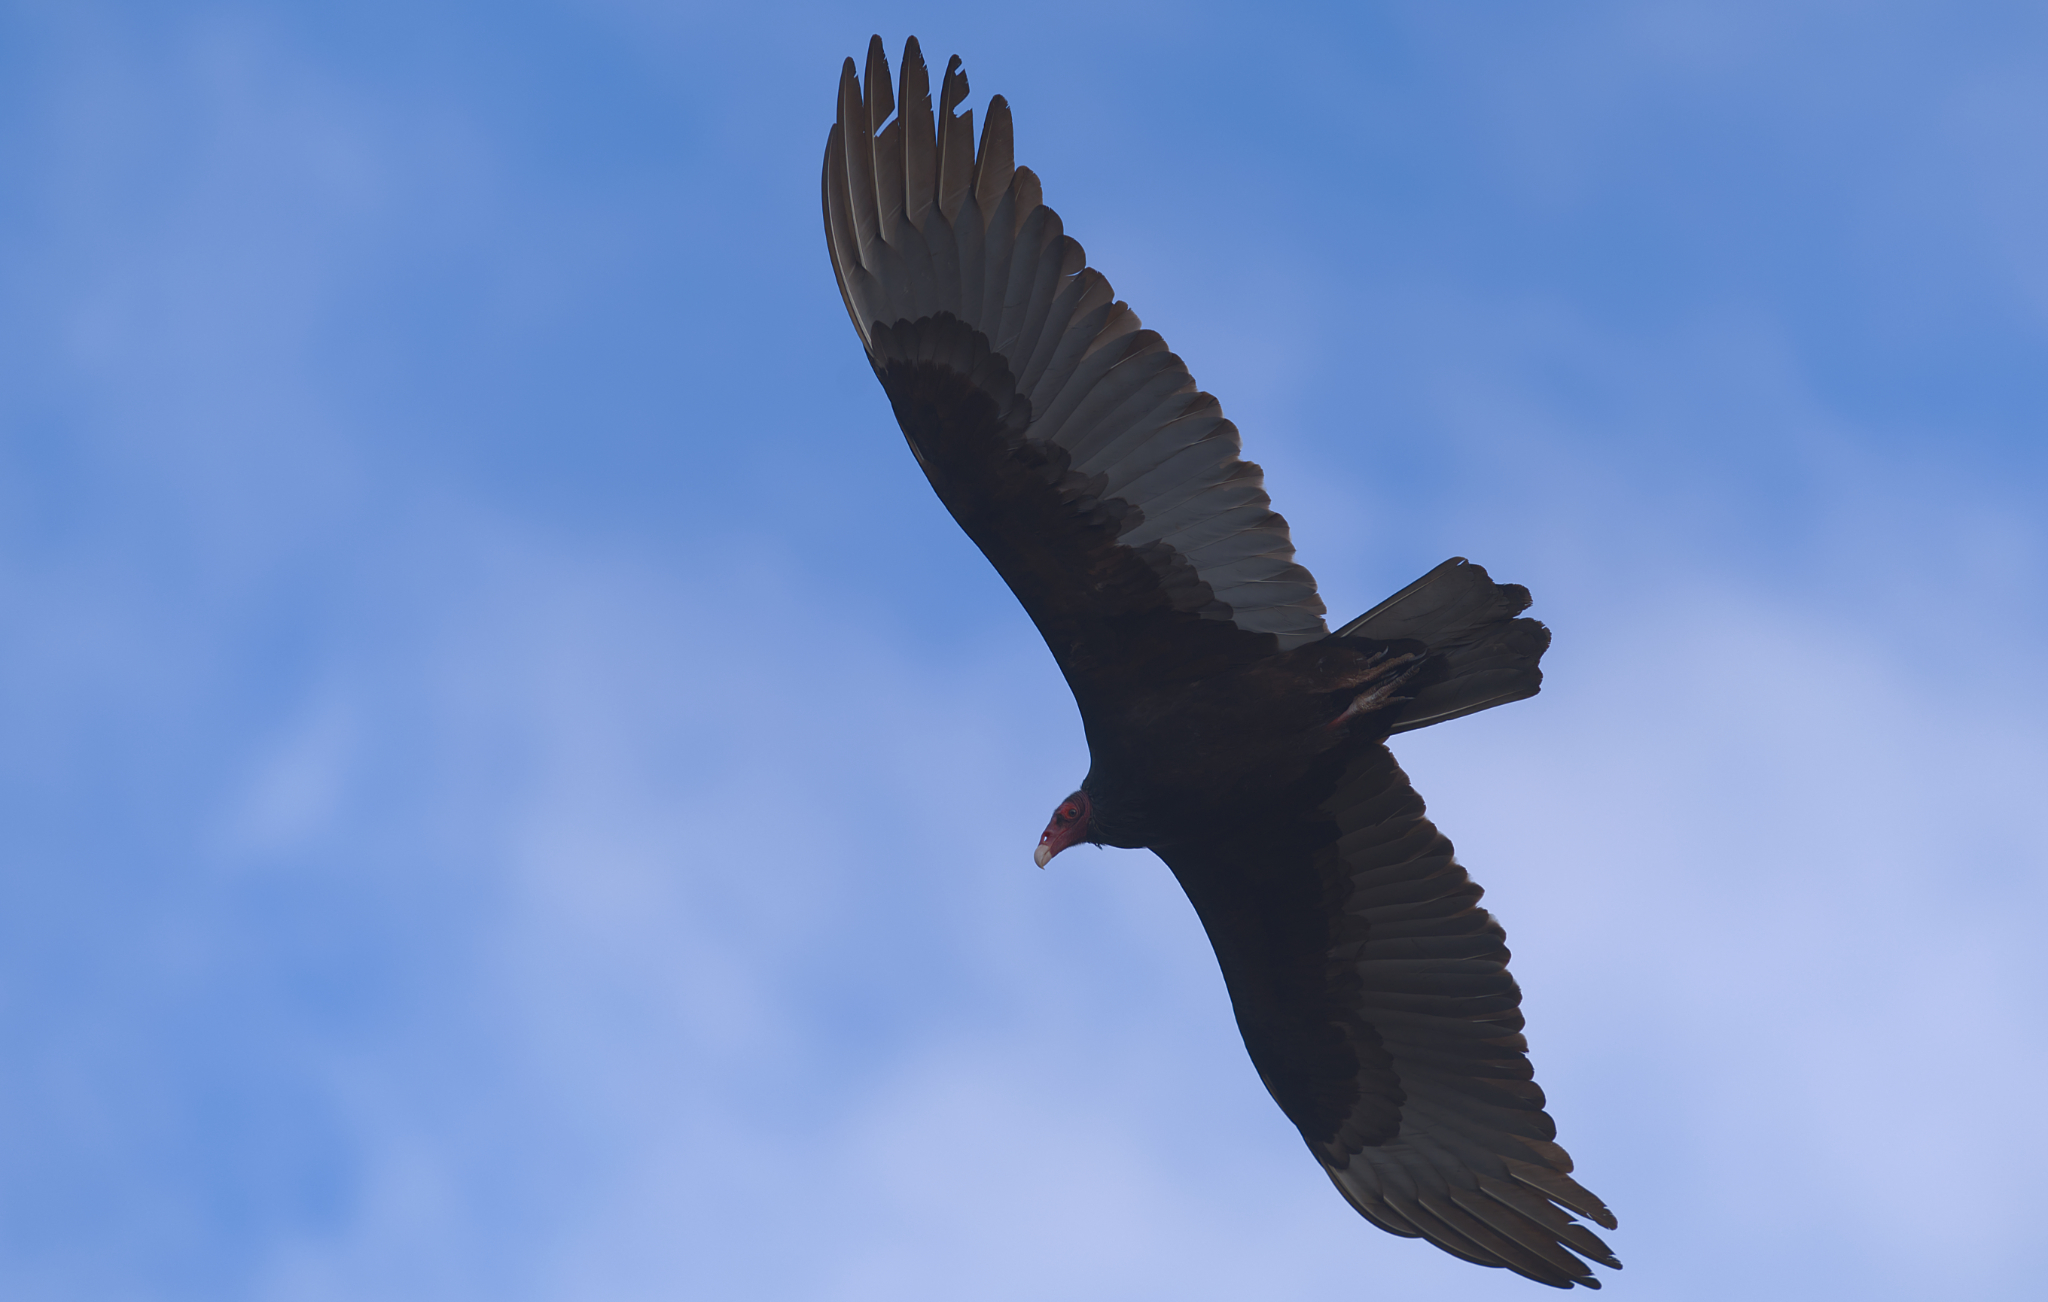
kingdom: Animalia
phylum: Chordata
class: Aves
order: Accipitriformes
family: Cathartidae
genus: Cathartes
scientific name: Cathartes aura
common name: Turkey vulture
